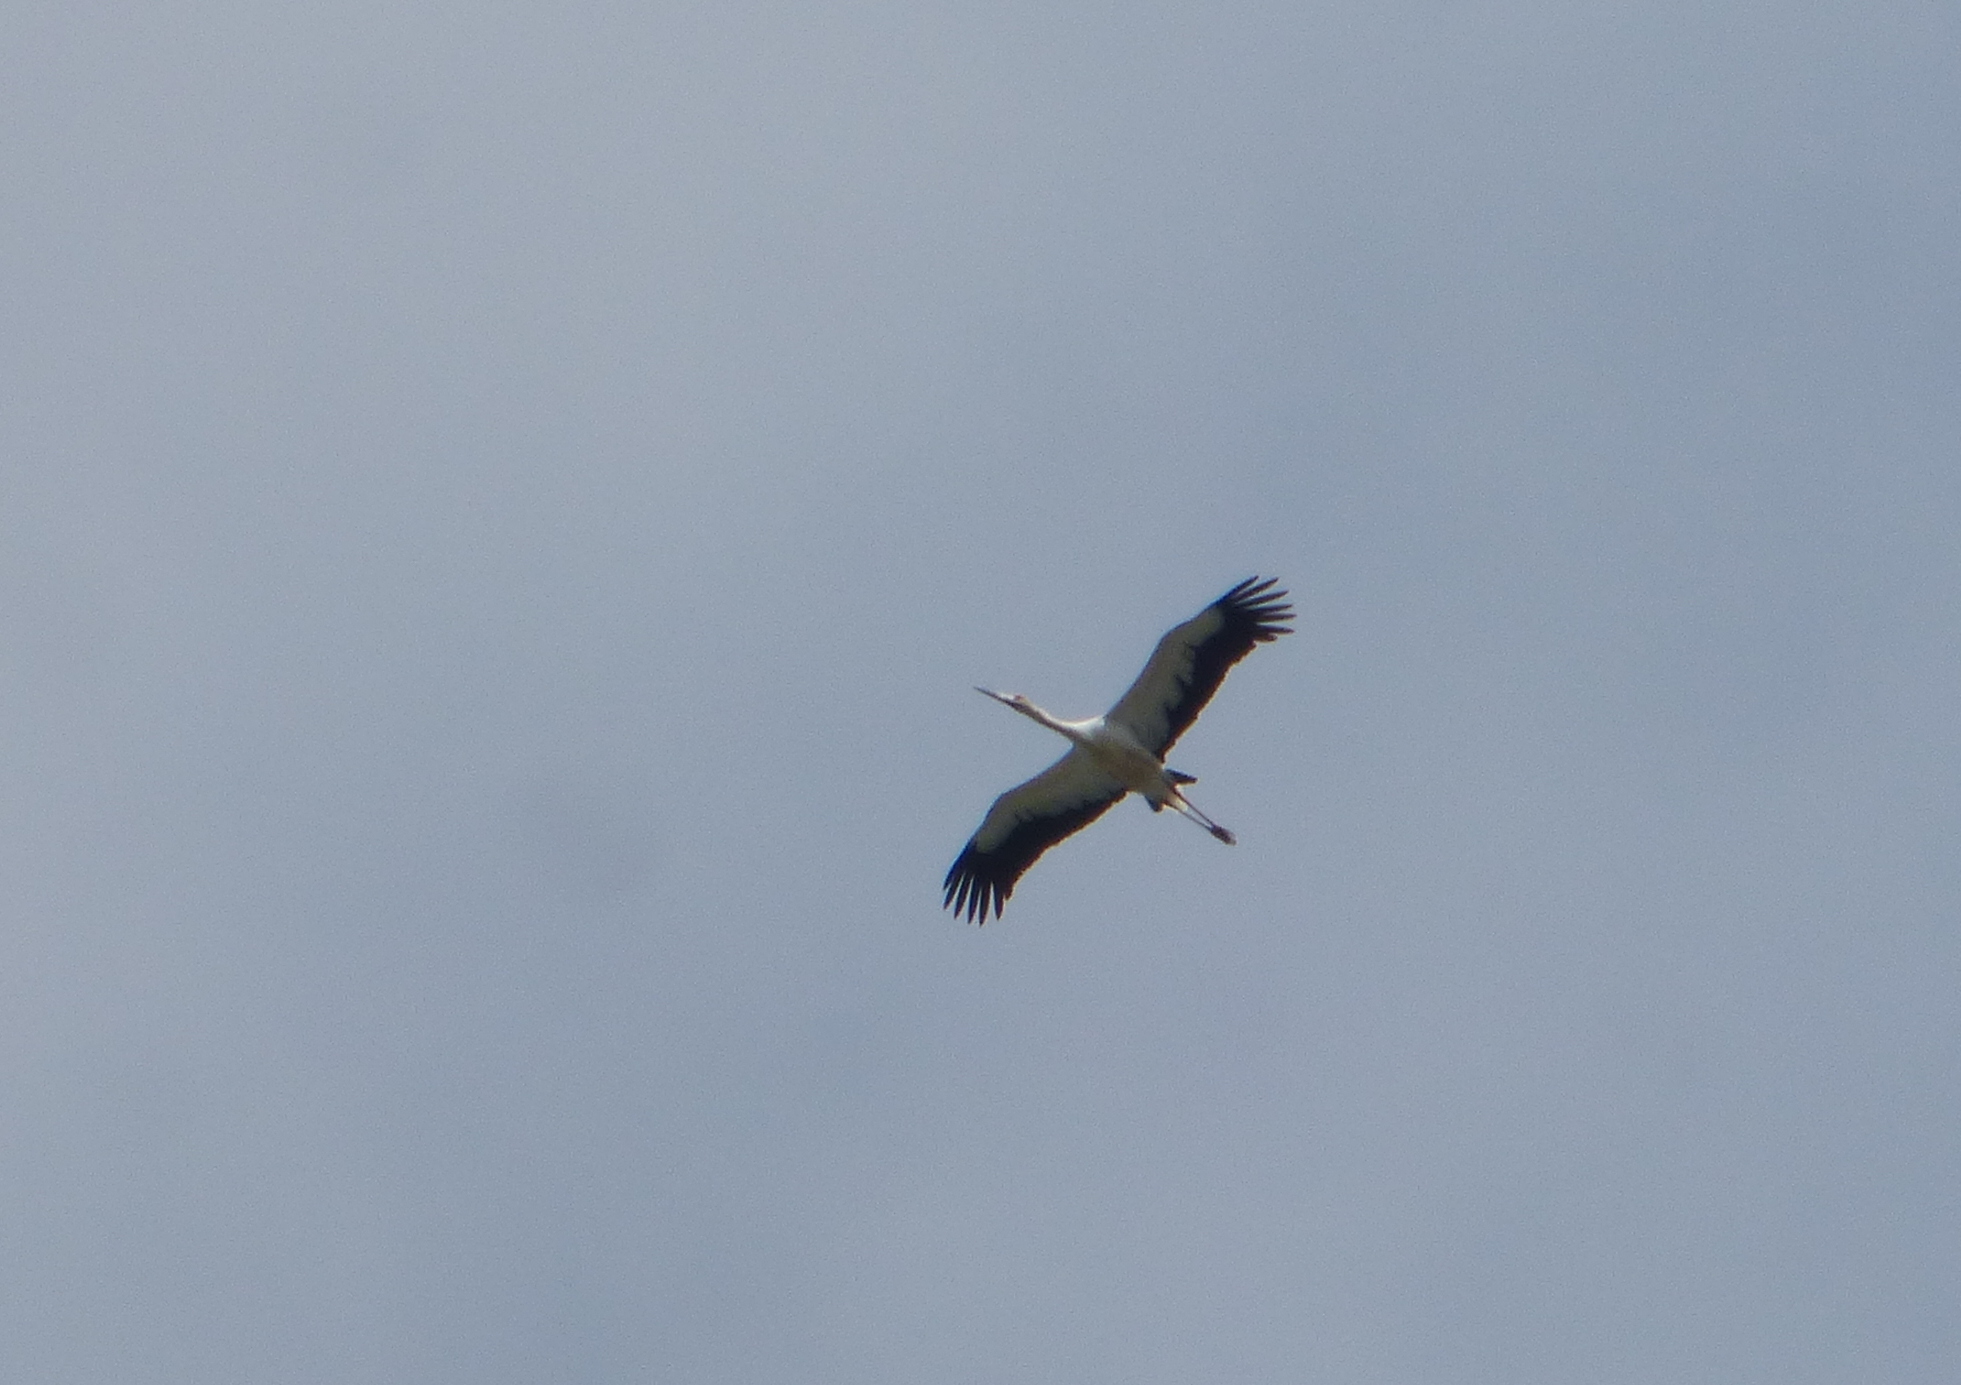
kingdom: Animalia
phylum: Chordata
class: Aves
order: Ciconiiformes
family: Ciconiidae
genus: Ciconia
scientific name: Ciconia maguari
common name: Maguari stork
